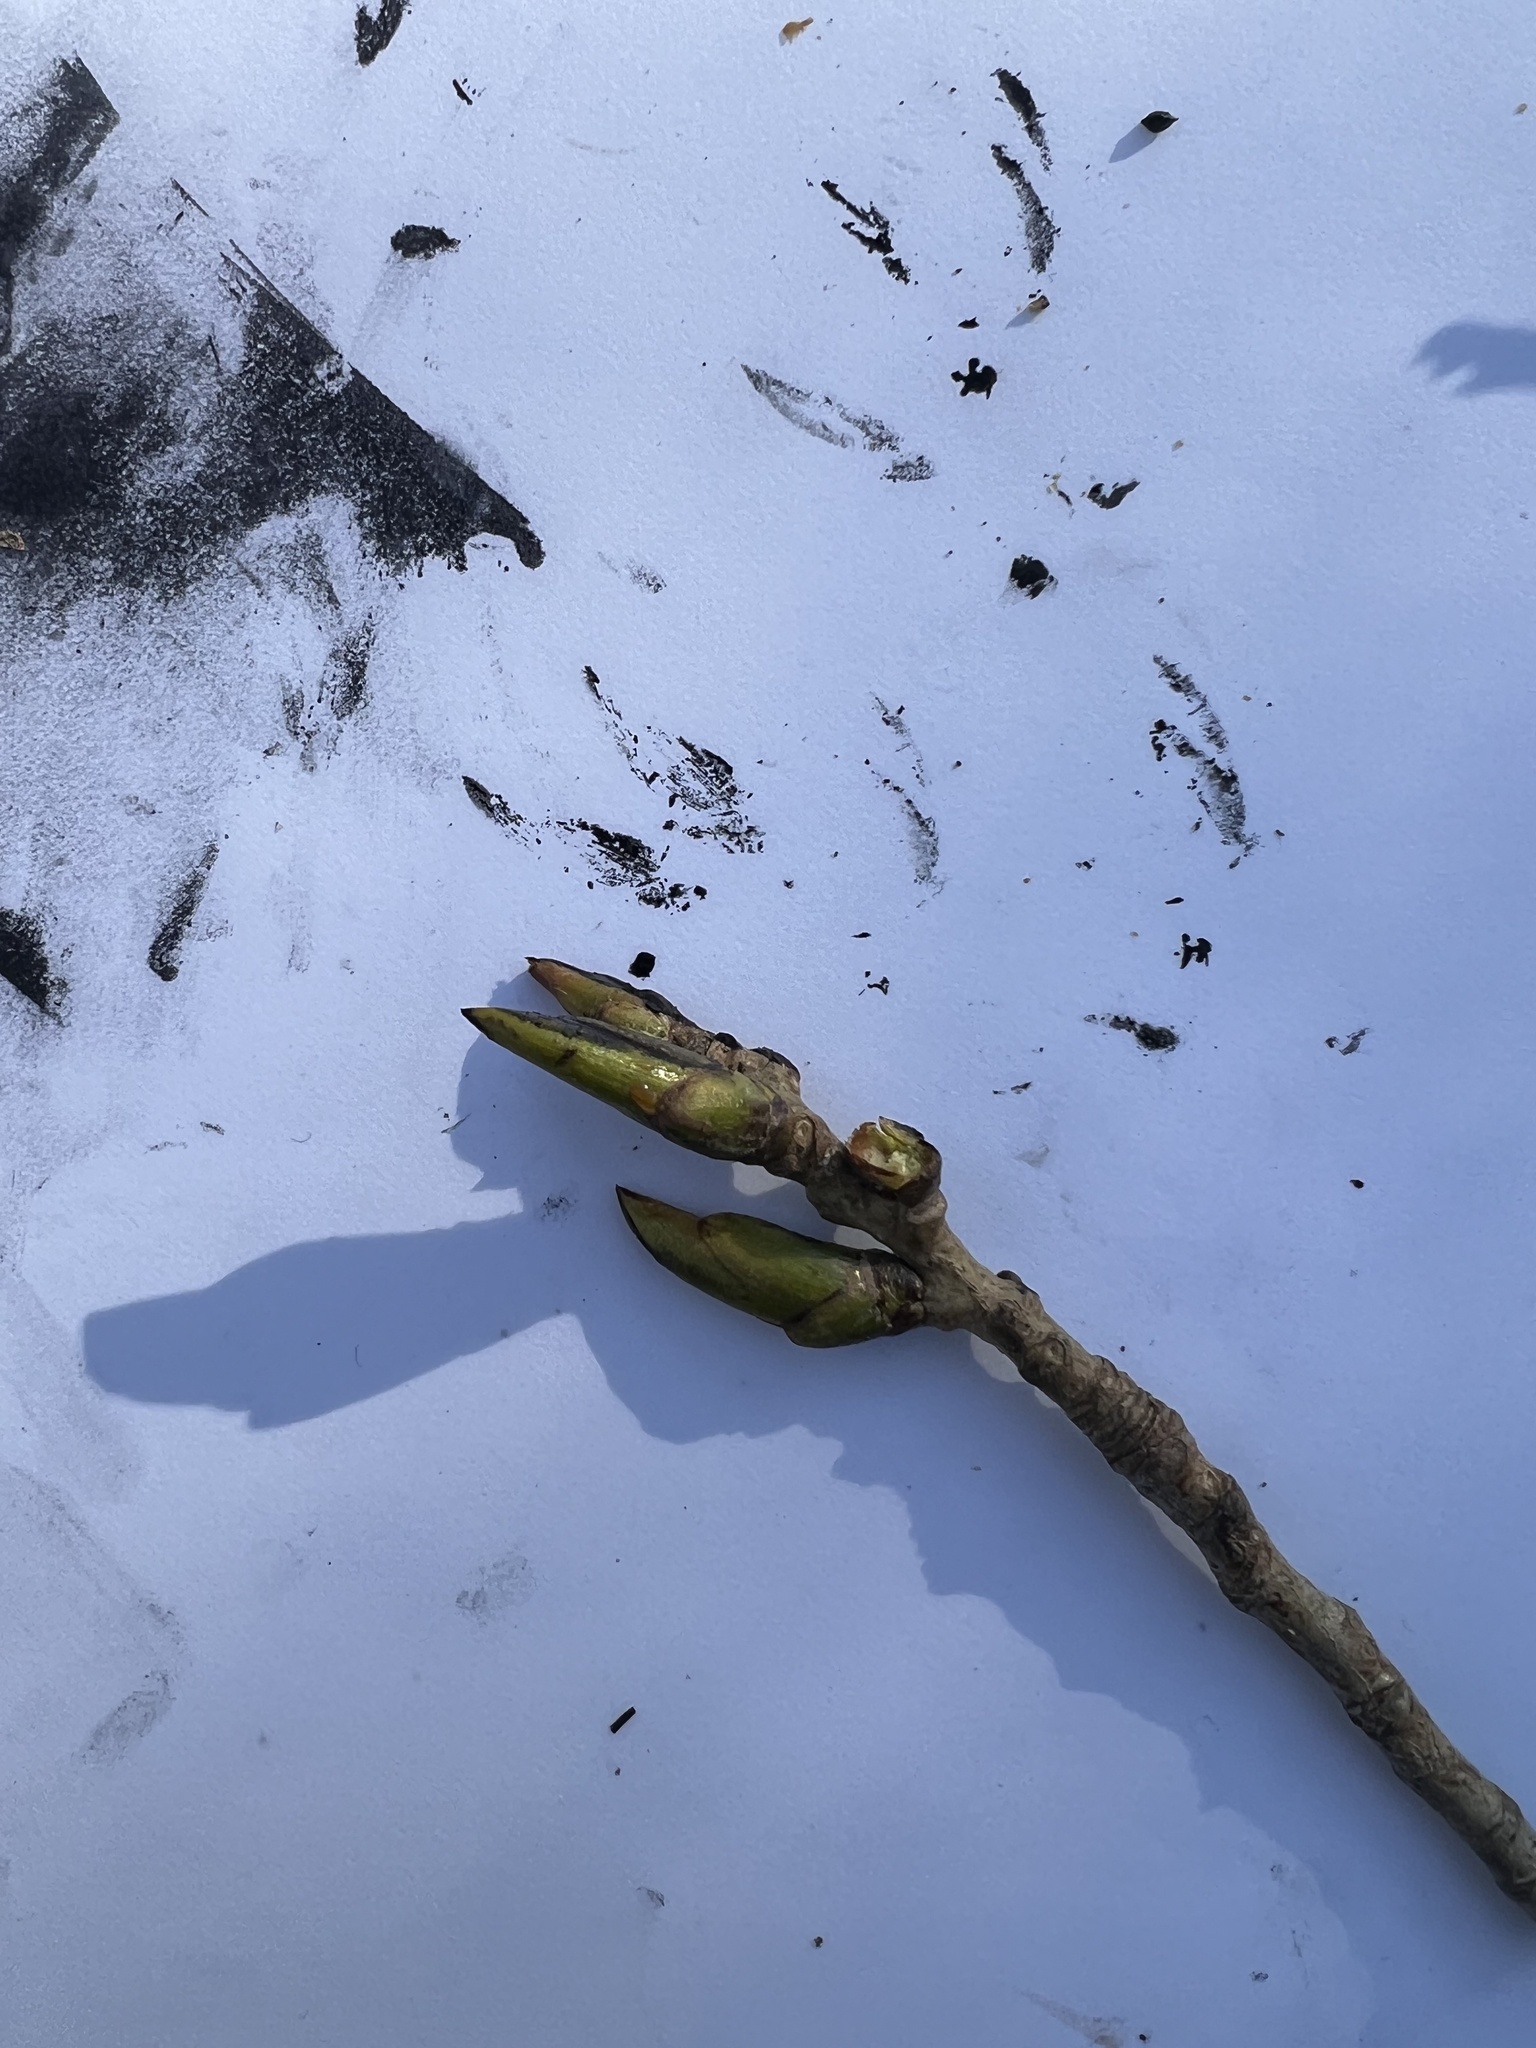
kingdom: Plantae
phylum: Tracheophyta
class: Magnoliopsida
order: Malpighiales
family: Salicaceae
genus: Populus
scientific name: Populus deltoides
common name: Eastern cottonwood
